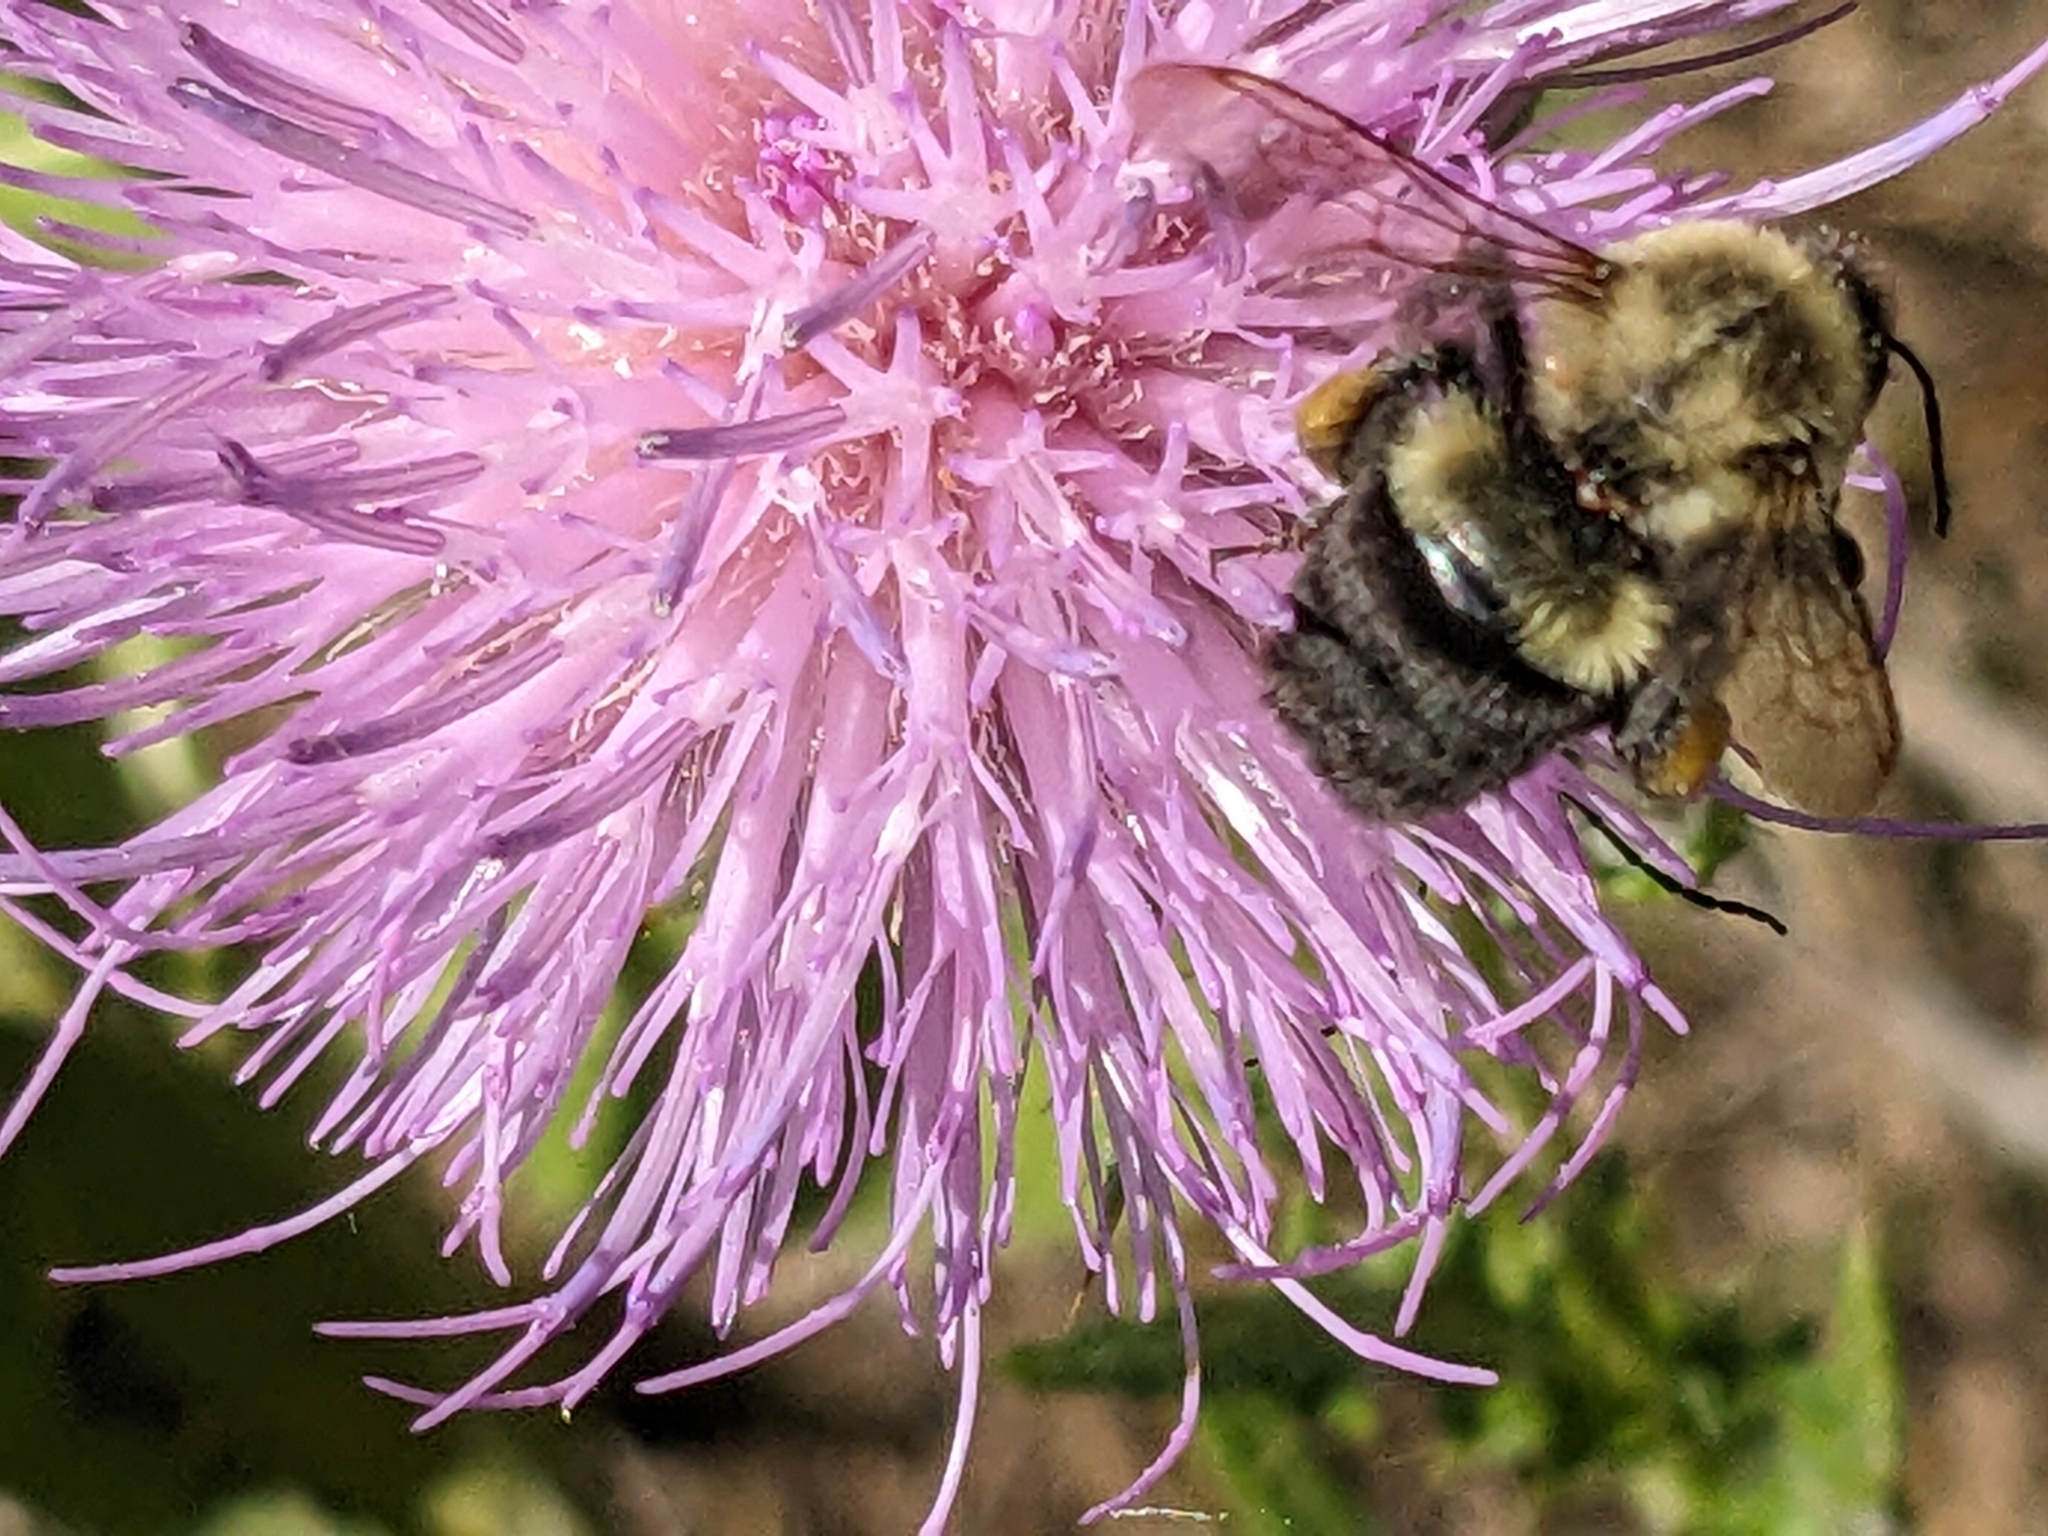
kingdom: Animalia
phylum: Arthropoda
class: Insecta
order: Hymenoptera
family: Apidae
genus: Bombus
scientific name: Bombus impatiens
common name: Common eastern bumble bee
